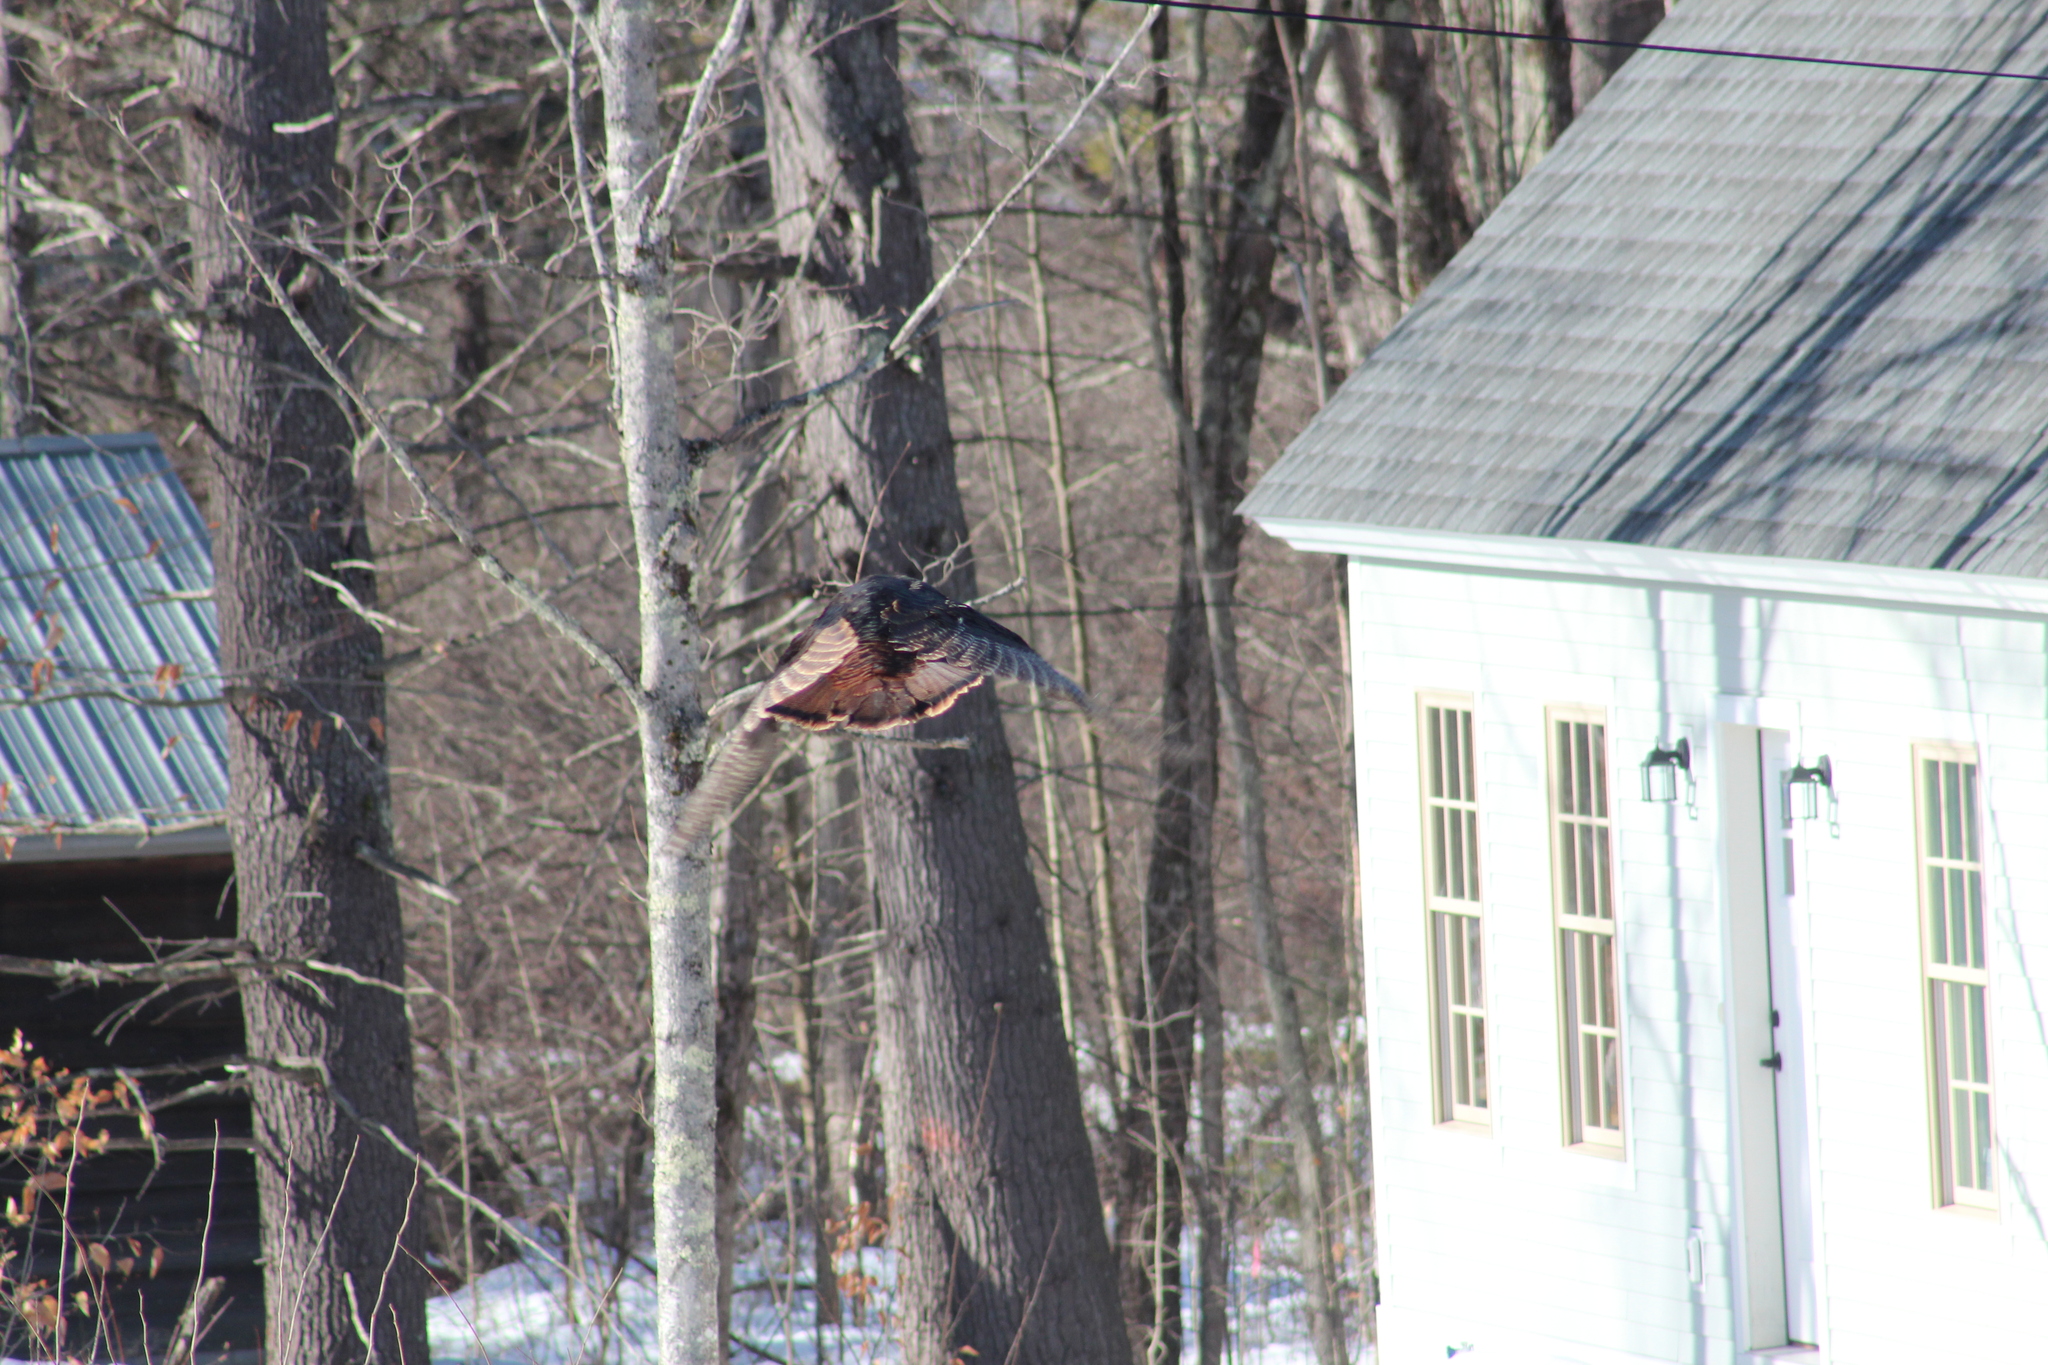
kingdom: Animalia
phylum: Chordata
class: Aves
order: Galliformes
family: Phasianidae
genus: Meleagris
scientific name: Meleagris gallopavo
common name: Wild turkey
